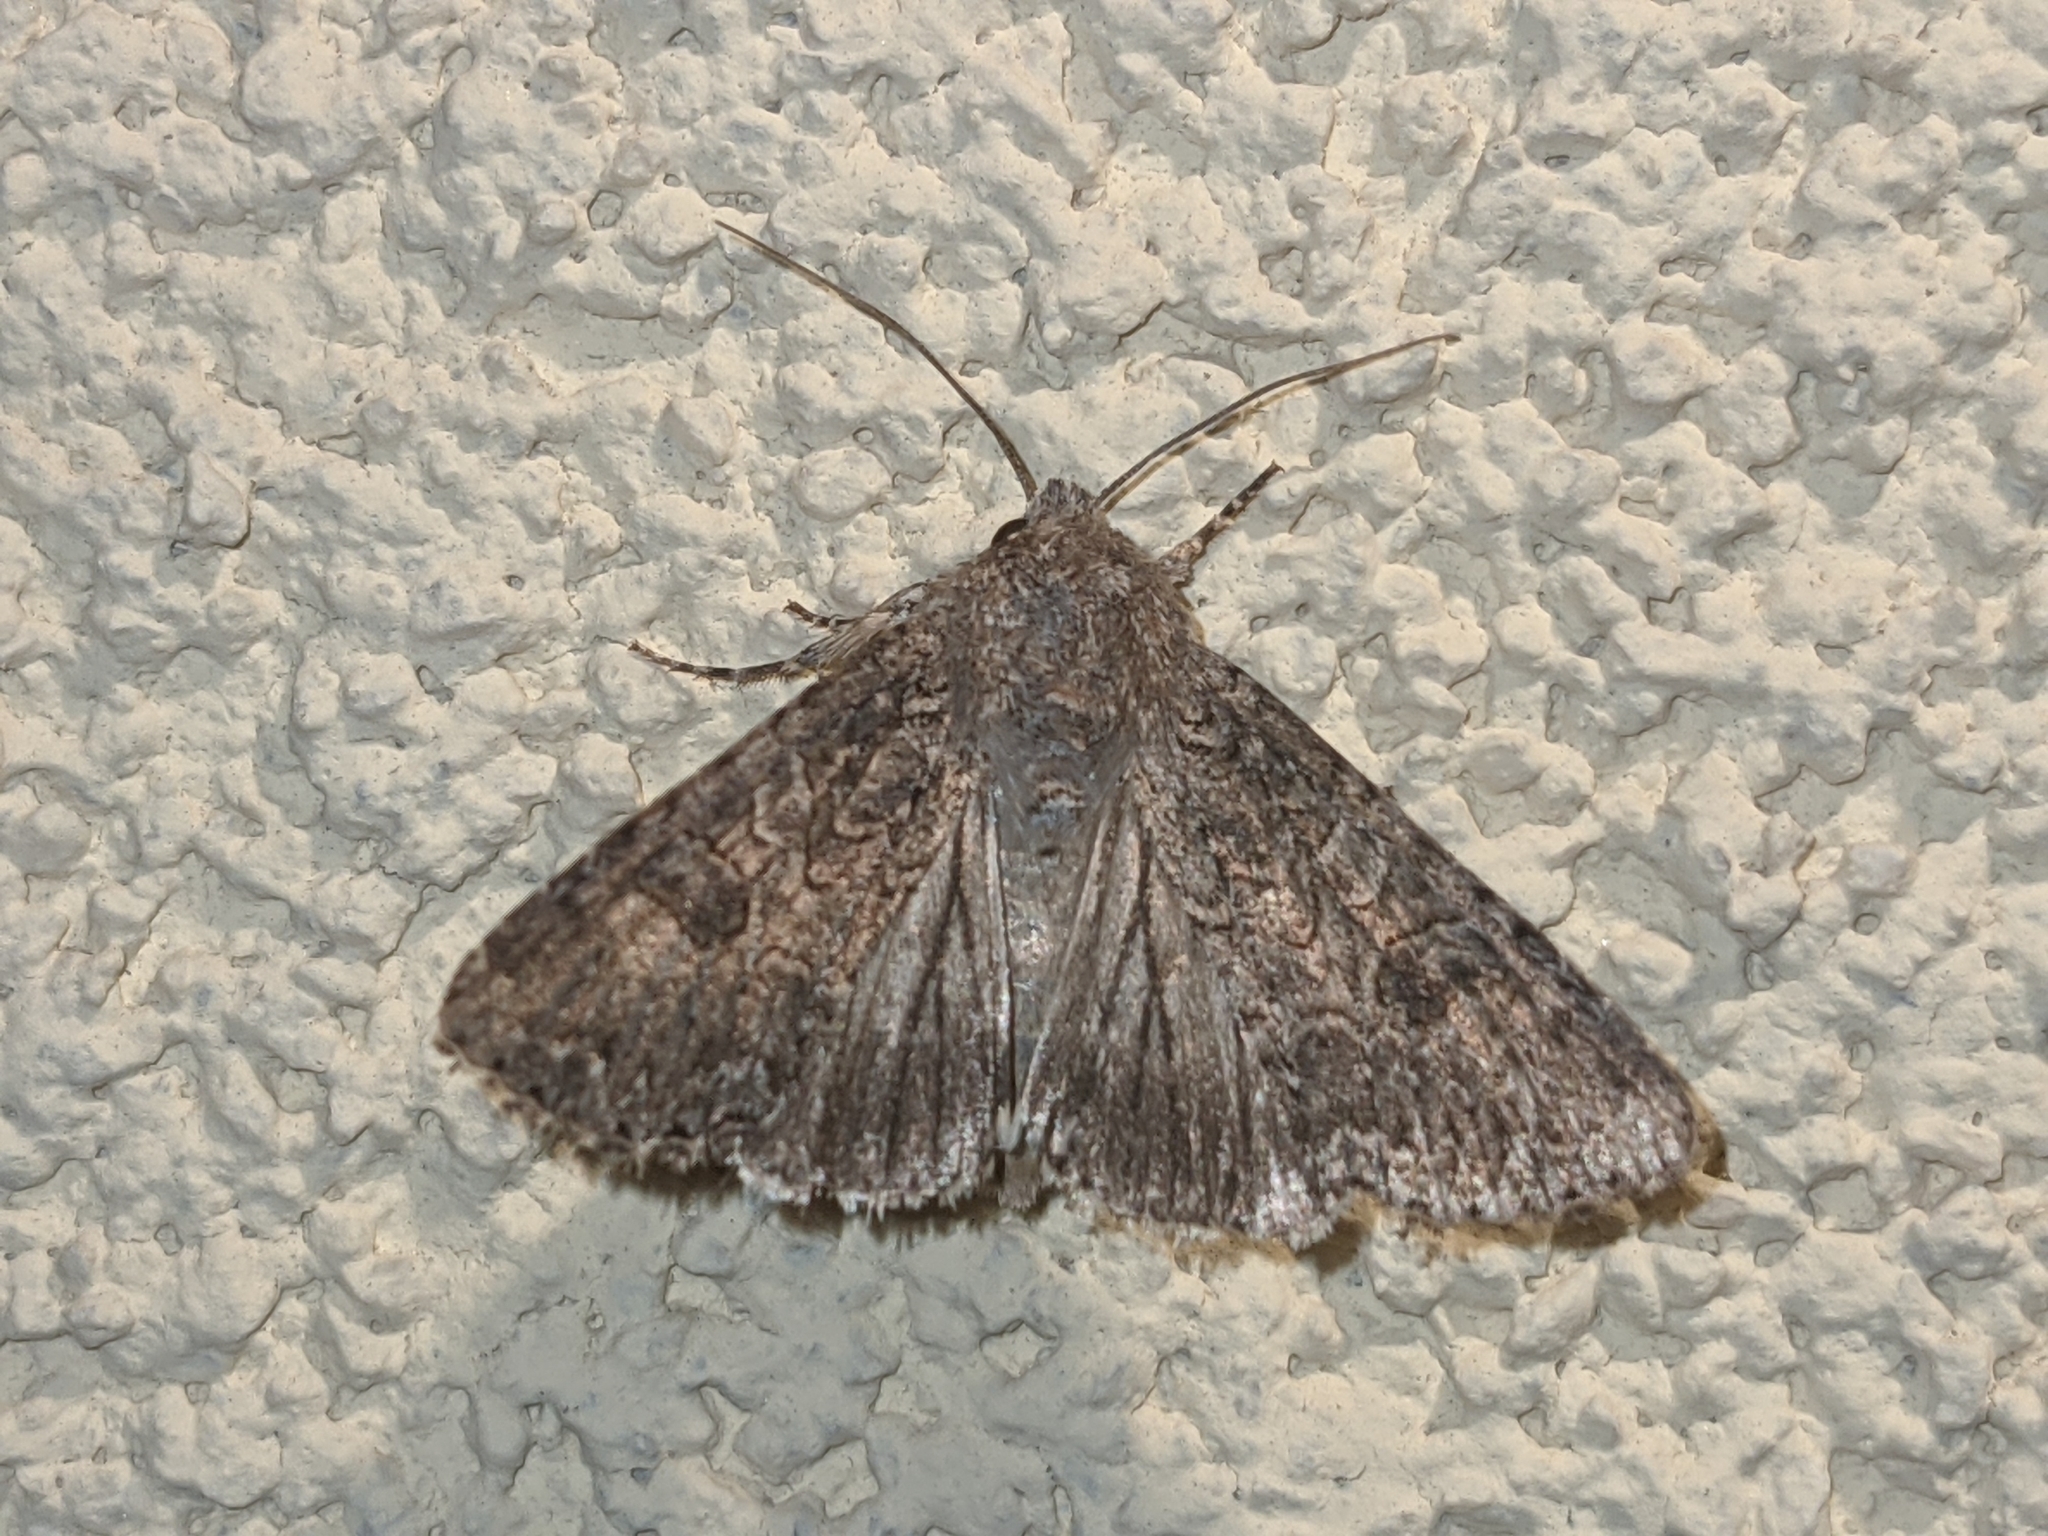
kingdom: Animalia
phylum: Arthropoda
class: Insecta
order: Lepidoptera
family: Noctuidae
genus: Anarta
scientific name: Anarta trifolii
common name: Clover cutworm moth
